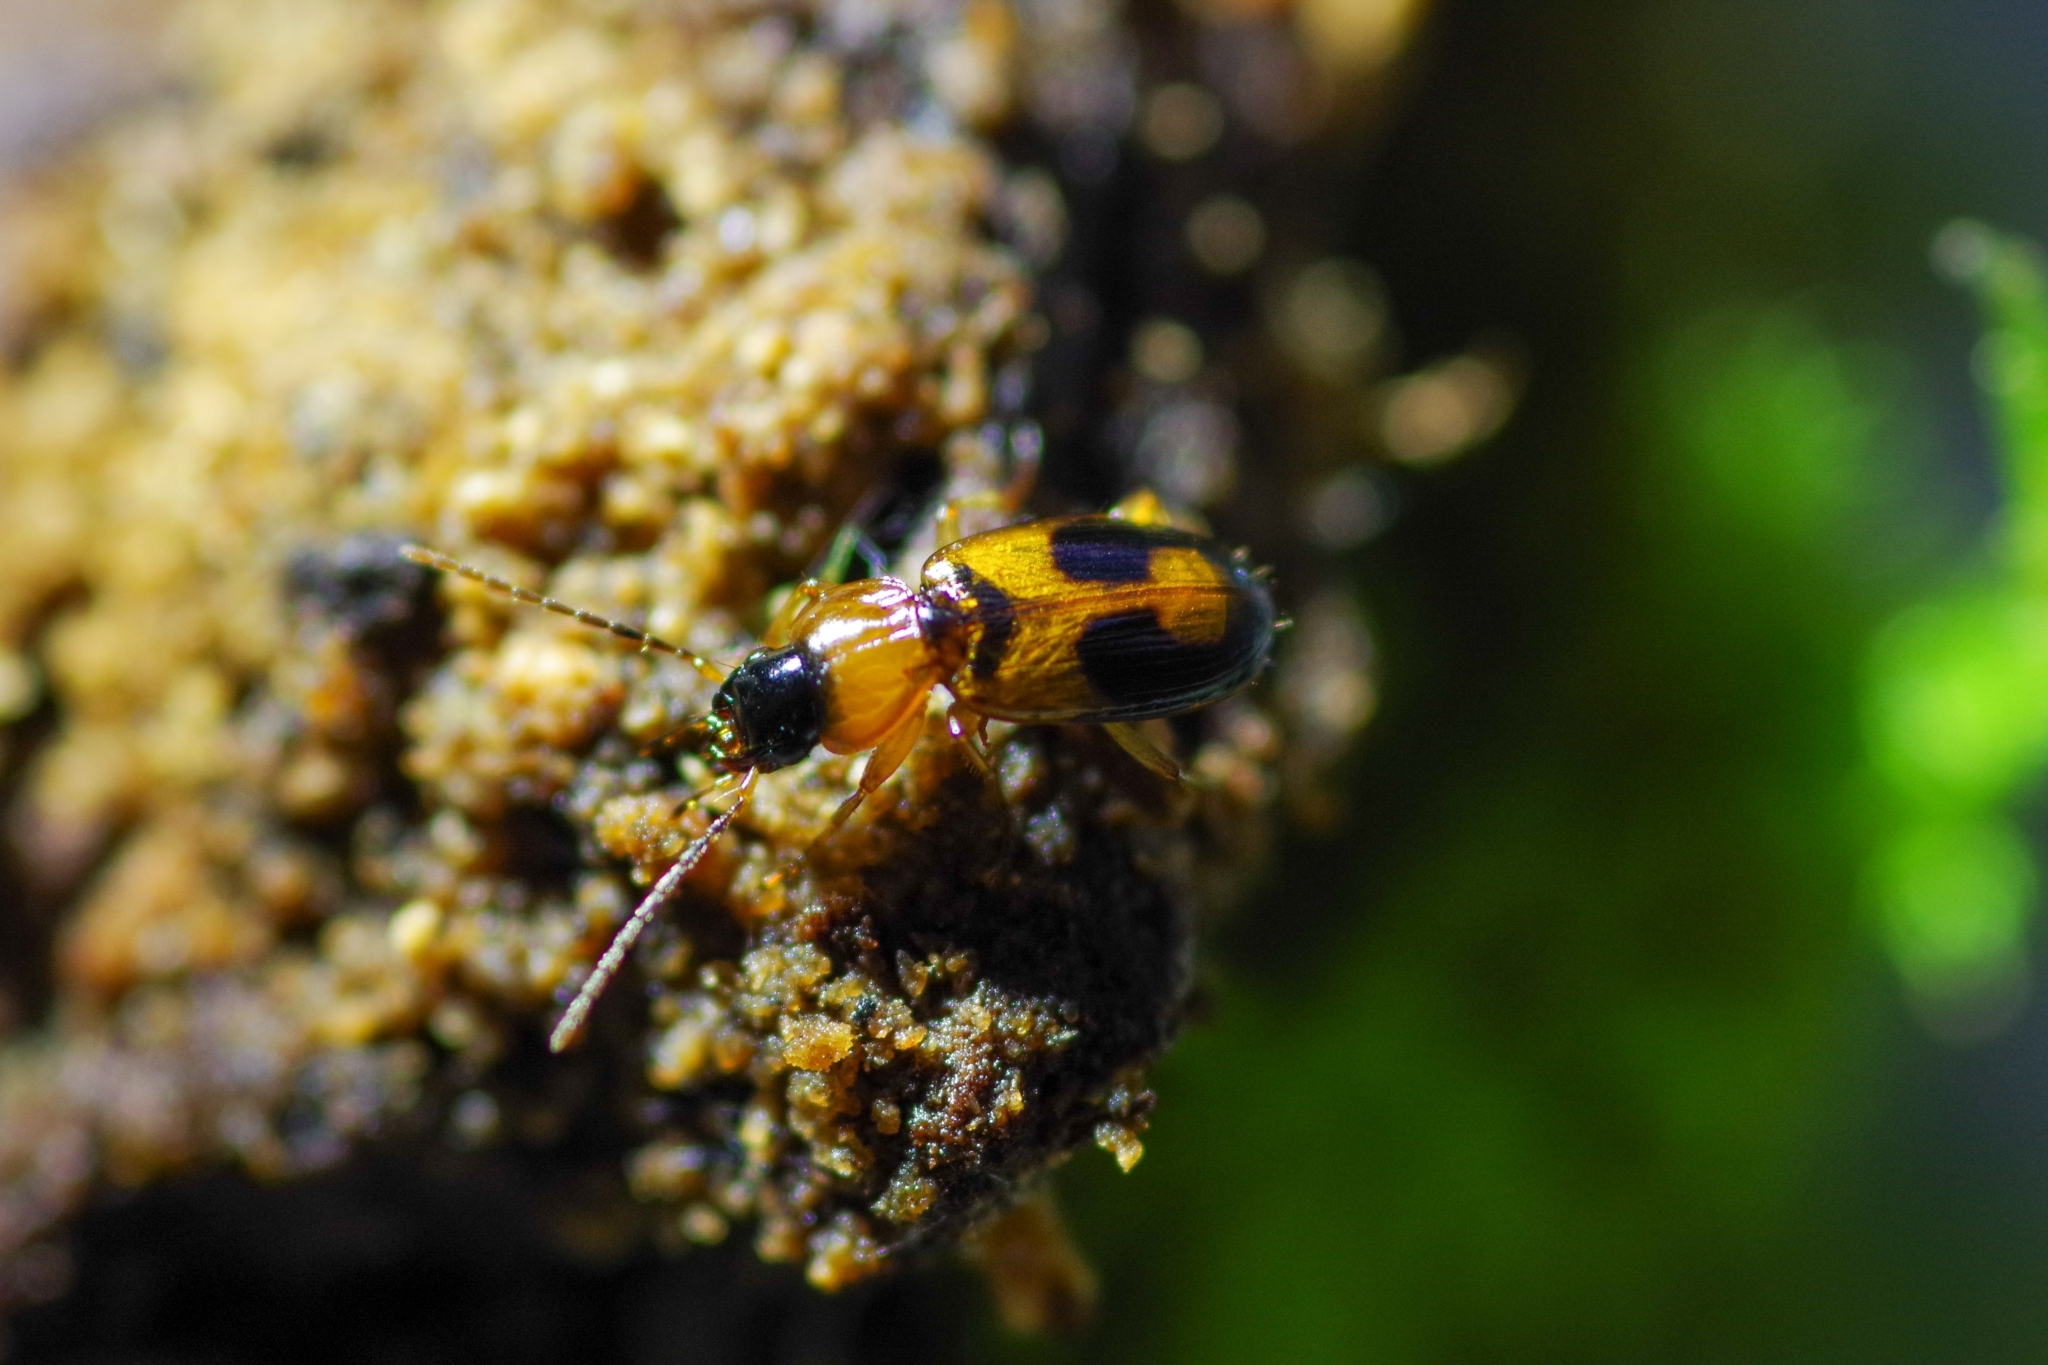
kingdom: Animalia
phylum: Arthropoda
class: Insecta
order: Coleoptera
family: Carabidae
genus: Badister
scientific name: Badister bullatus
